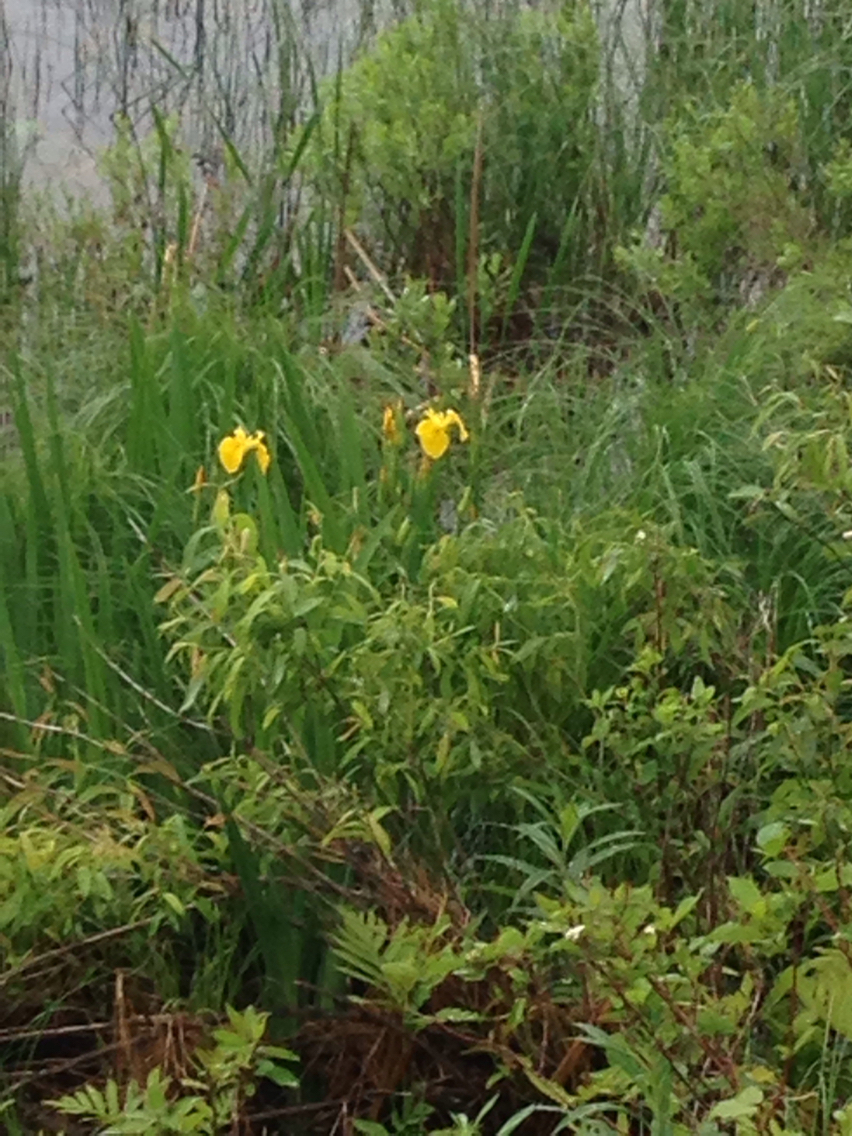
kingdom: Plantae
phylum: Tracheophyta
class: Liliopsida
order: Asparagales
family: Iridaceae
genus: Iris
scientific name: Iris pseudacorus
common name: Yellow flag
